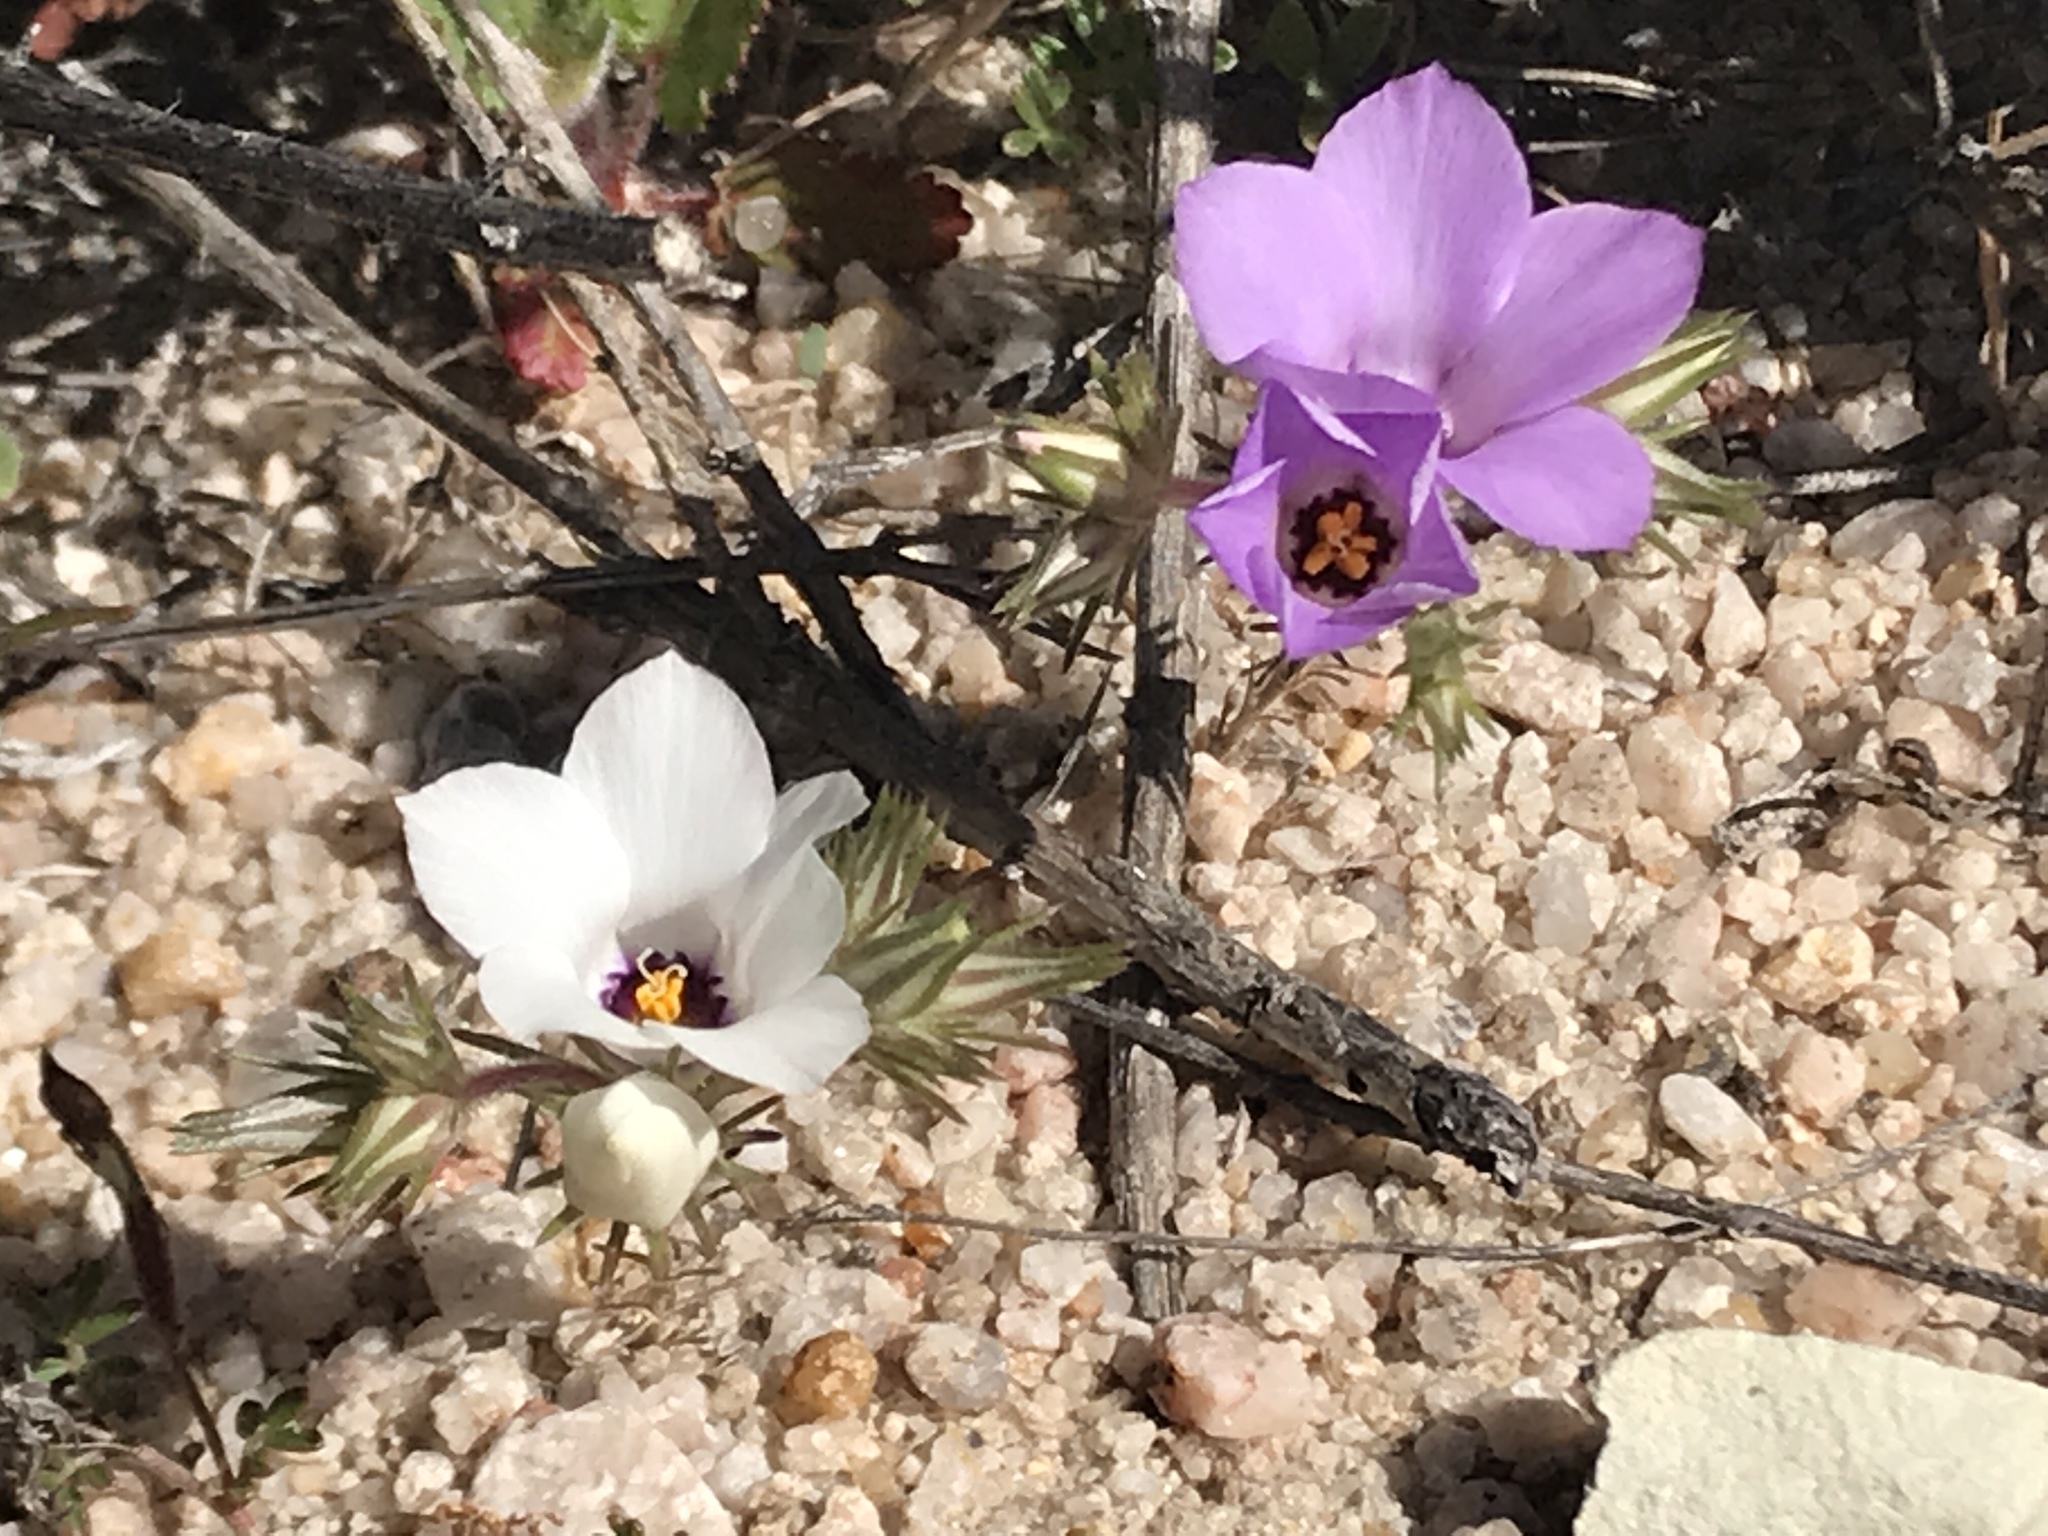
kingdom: Plantae
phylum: Tracheophyta
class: Magnoliopsida
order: Ericales
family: Polemoniaceae
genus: Linanthus
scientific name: Linanthus parryae
